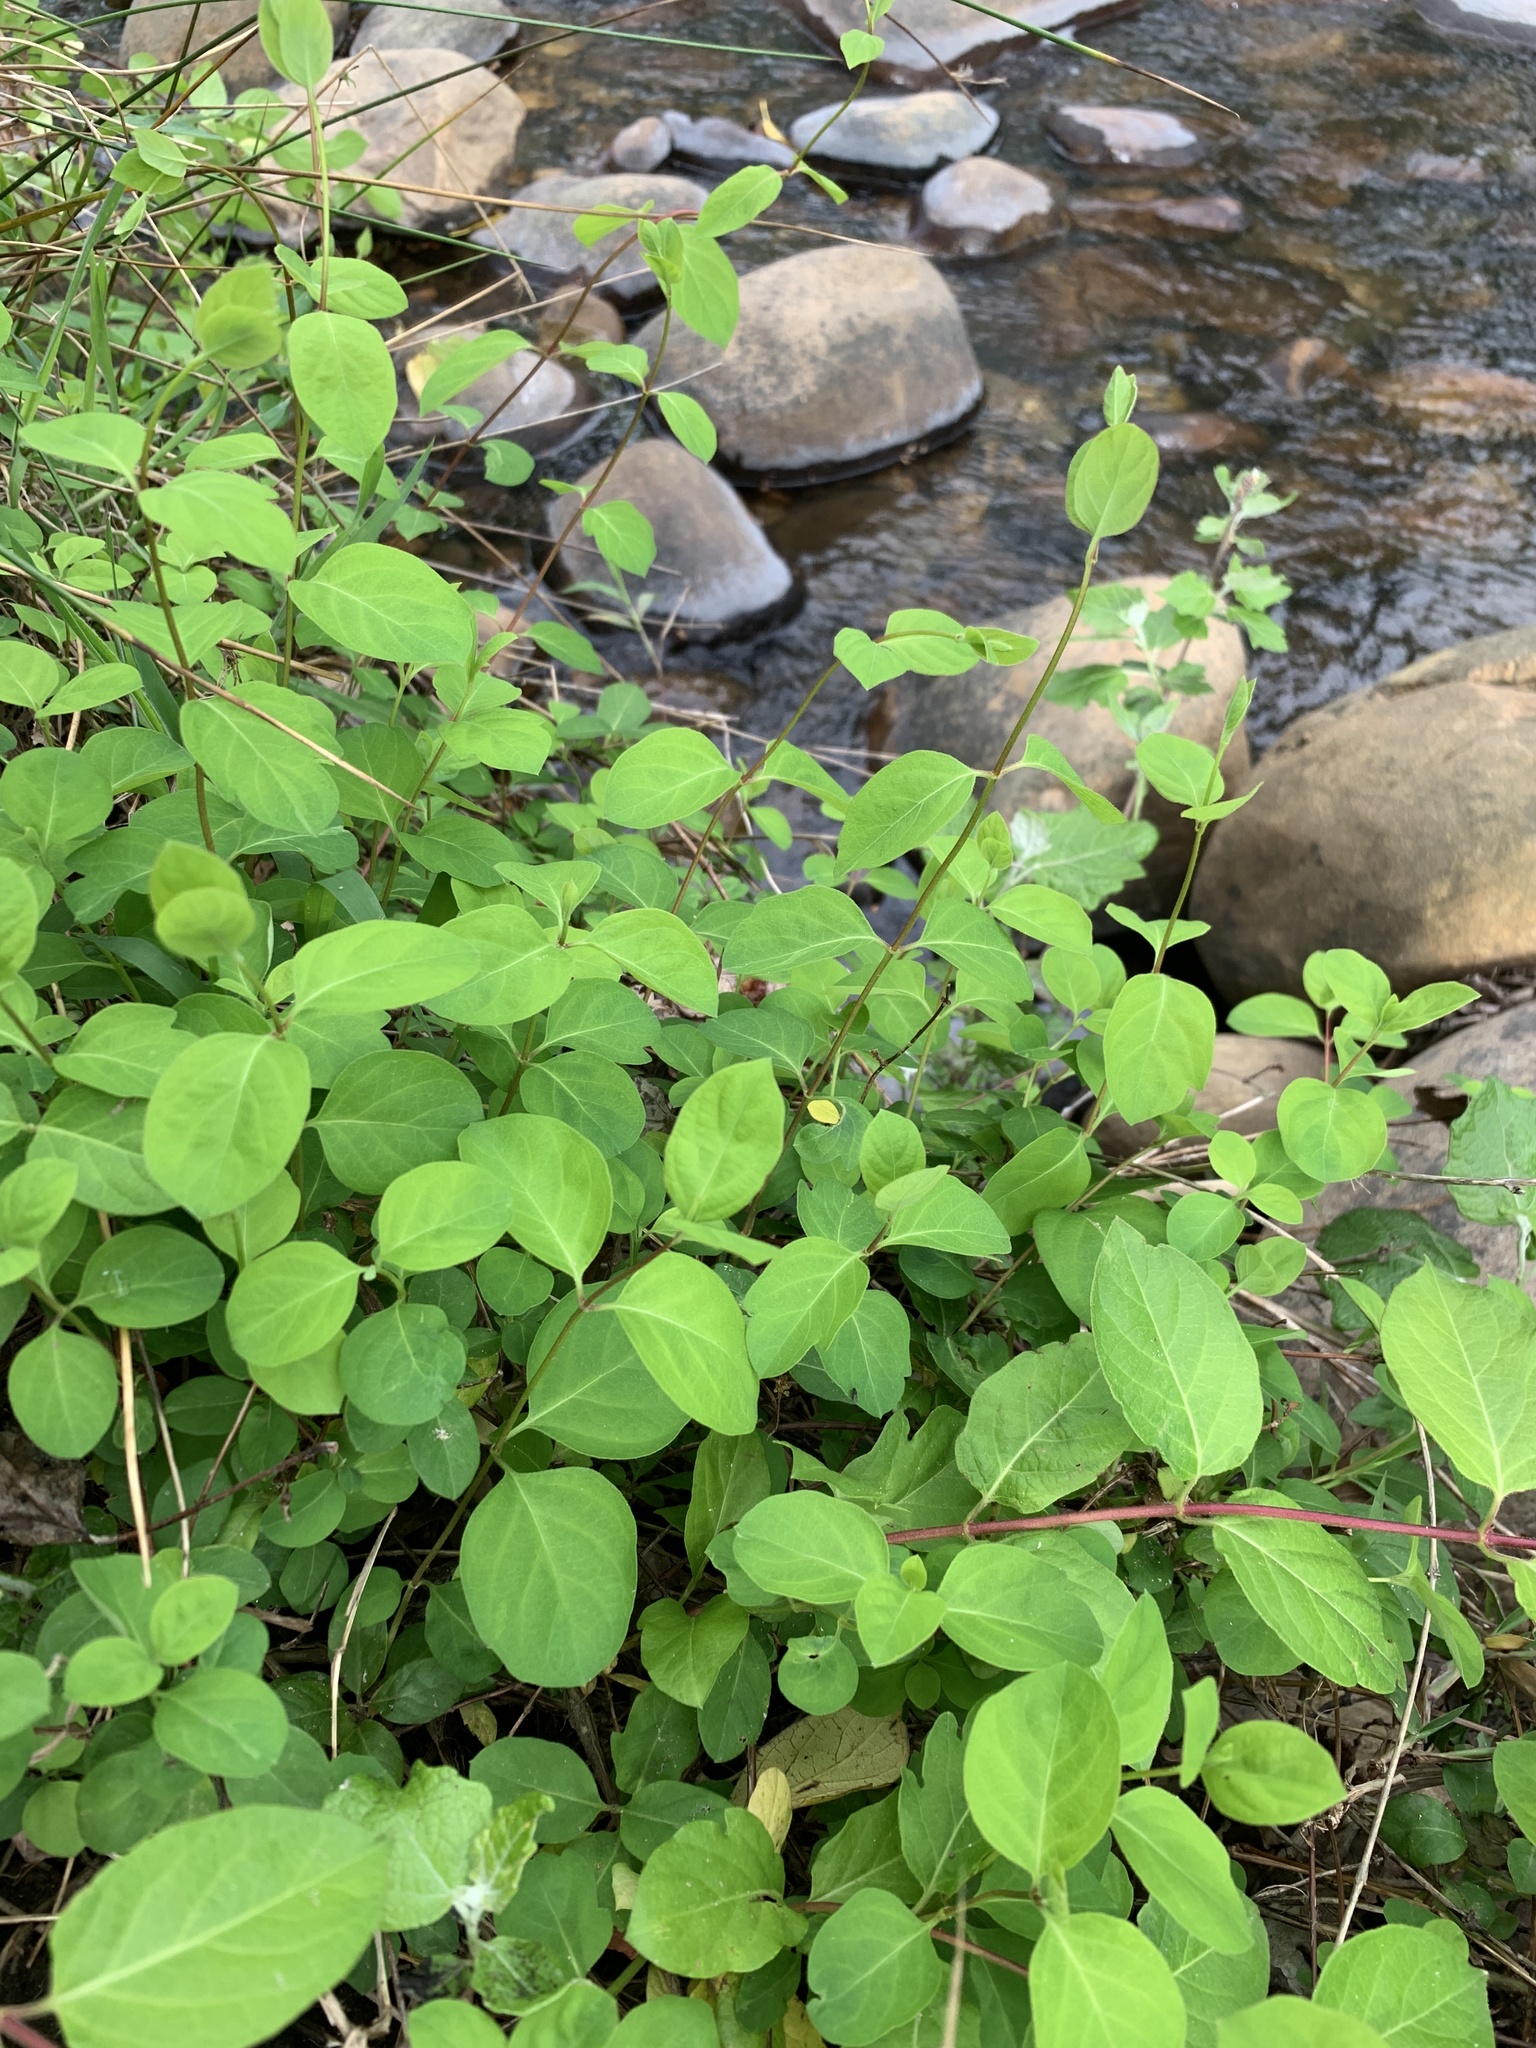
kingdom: Plantae
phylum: Tracheophyta
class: Magnoliopsida
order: Dipsacales
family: Caprifoliaceae
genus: Lonicera
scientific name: Lonicera japonica
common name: Japanese honeysuckle
